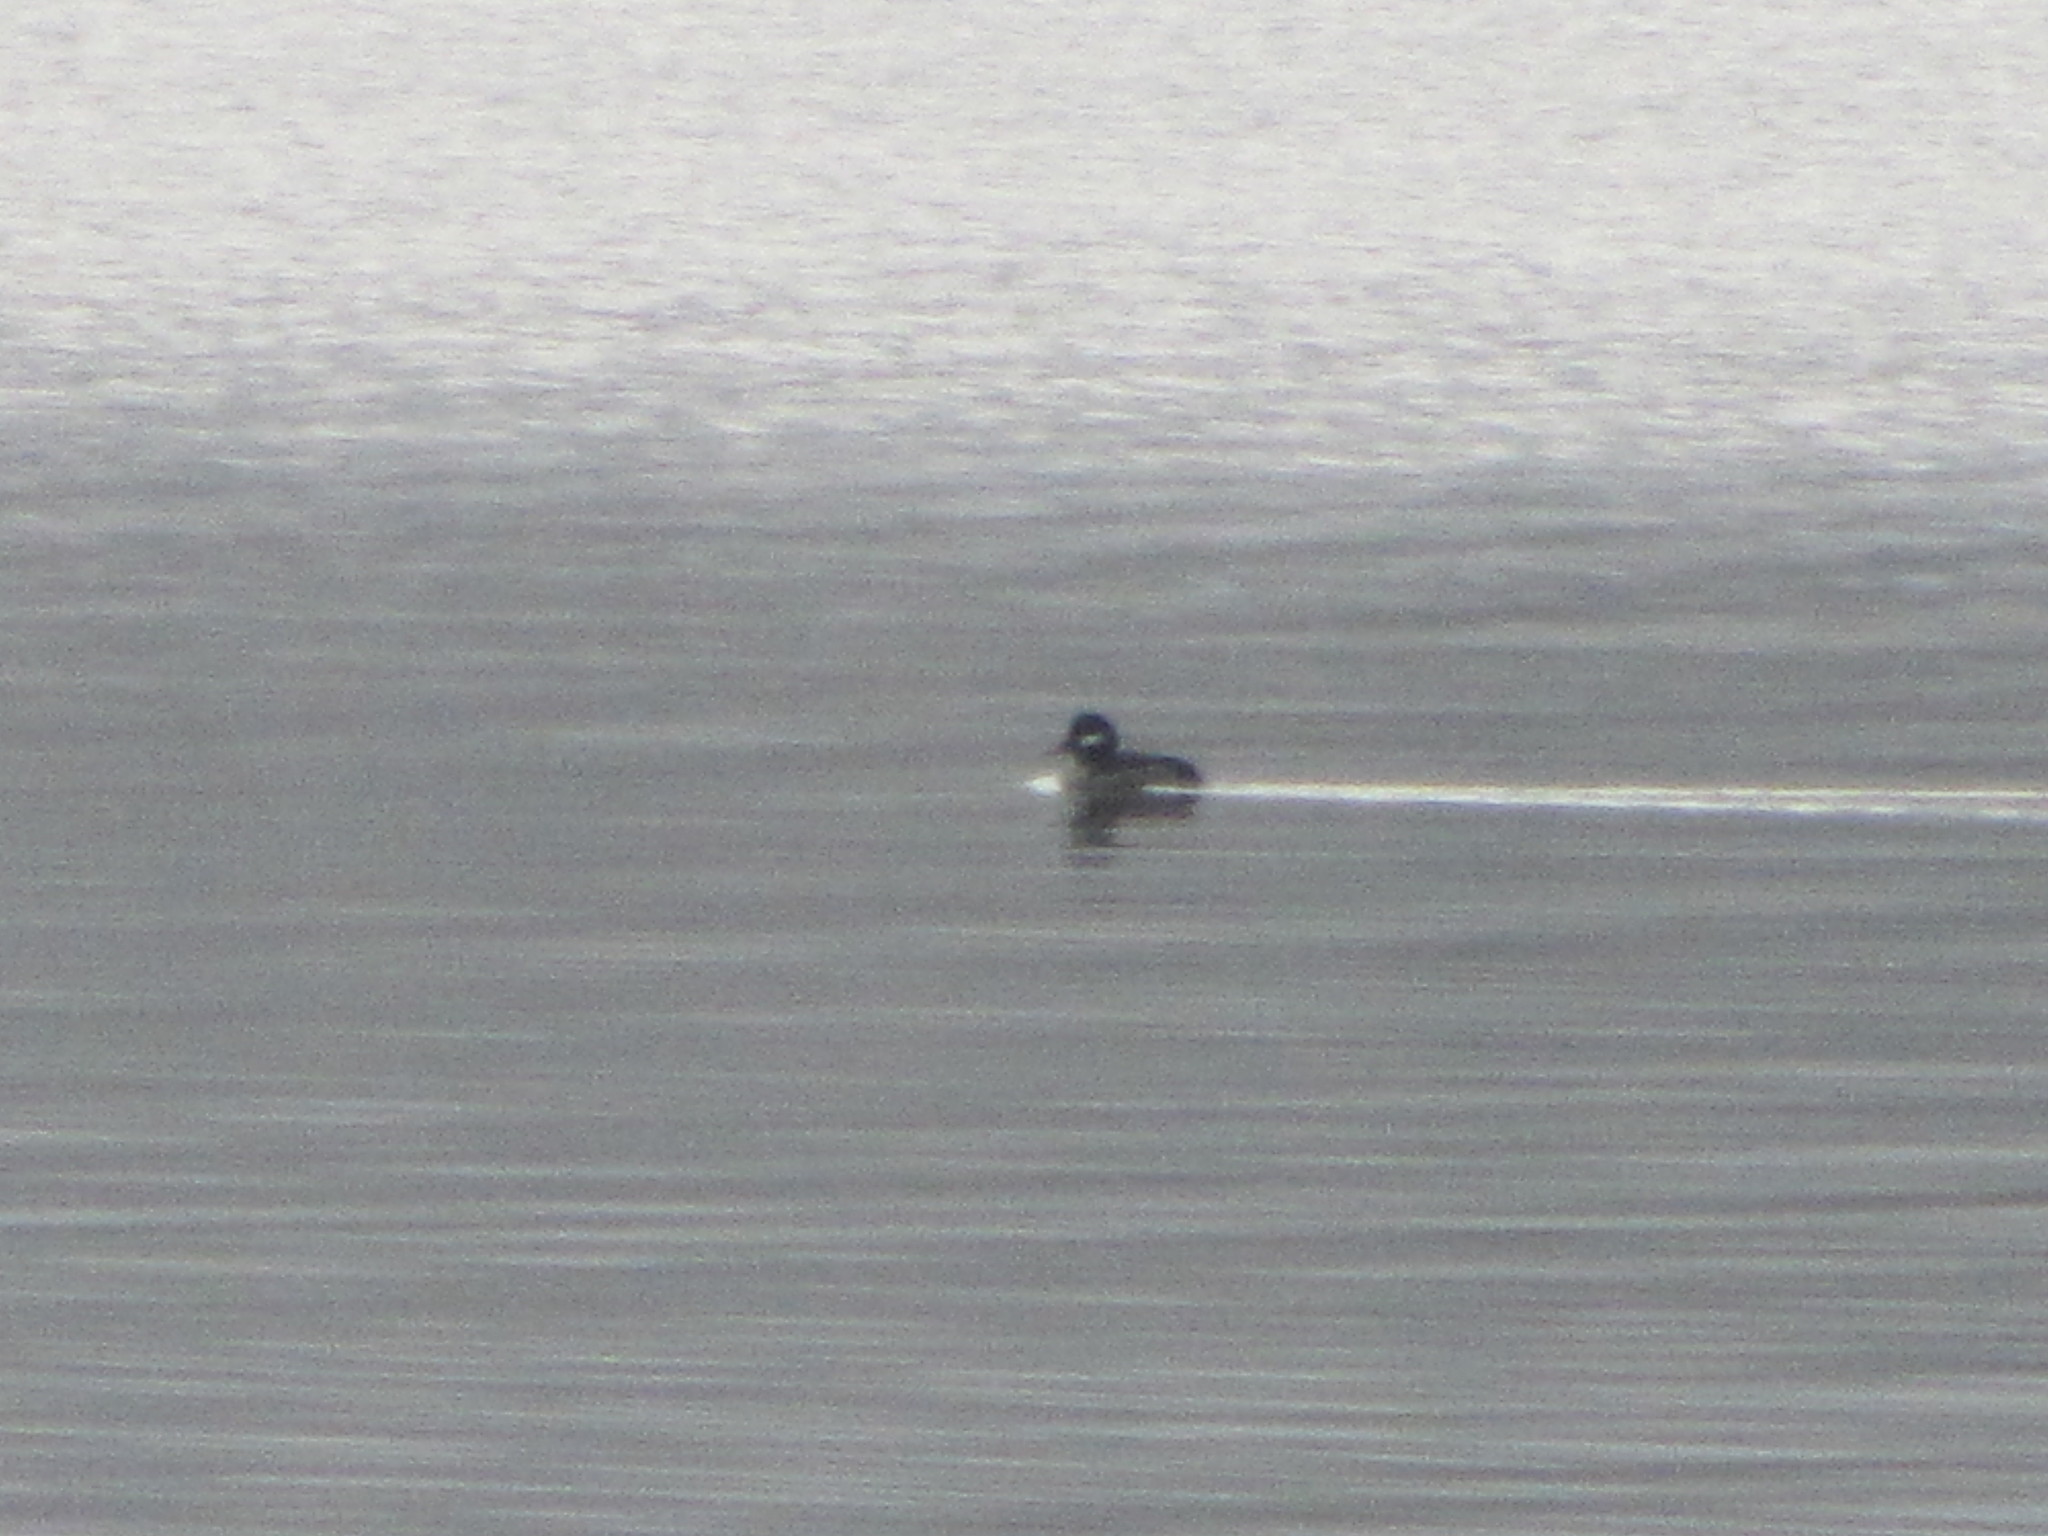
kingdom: Animalia
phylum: Chordata
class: Aves
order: Anseriformes
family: Anatidae
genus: Bucephala
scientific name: Bucephala albeola
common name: Bufflehead
